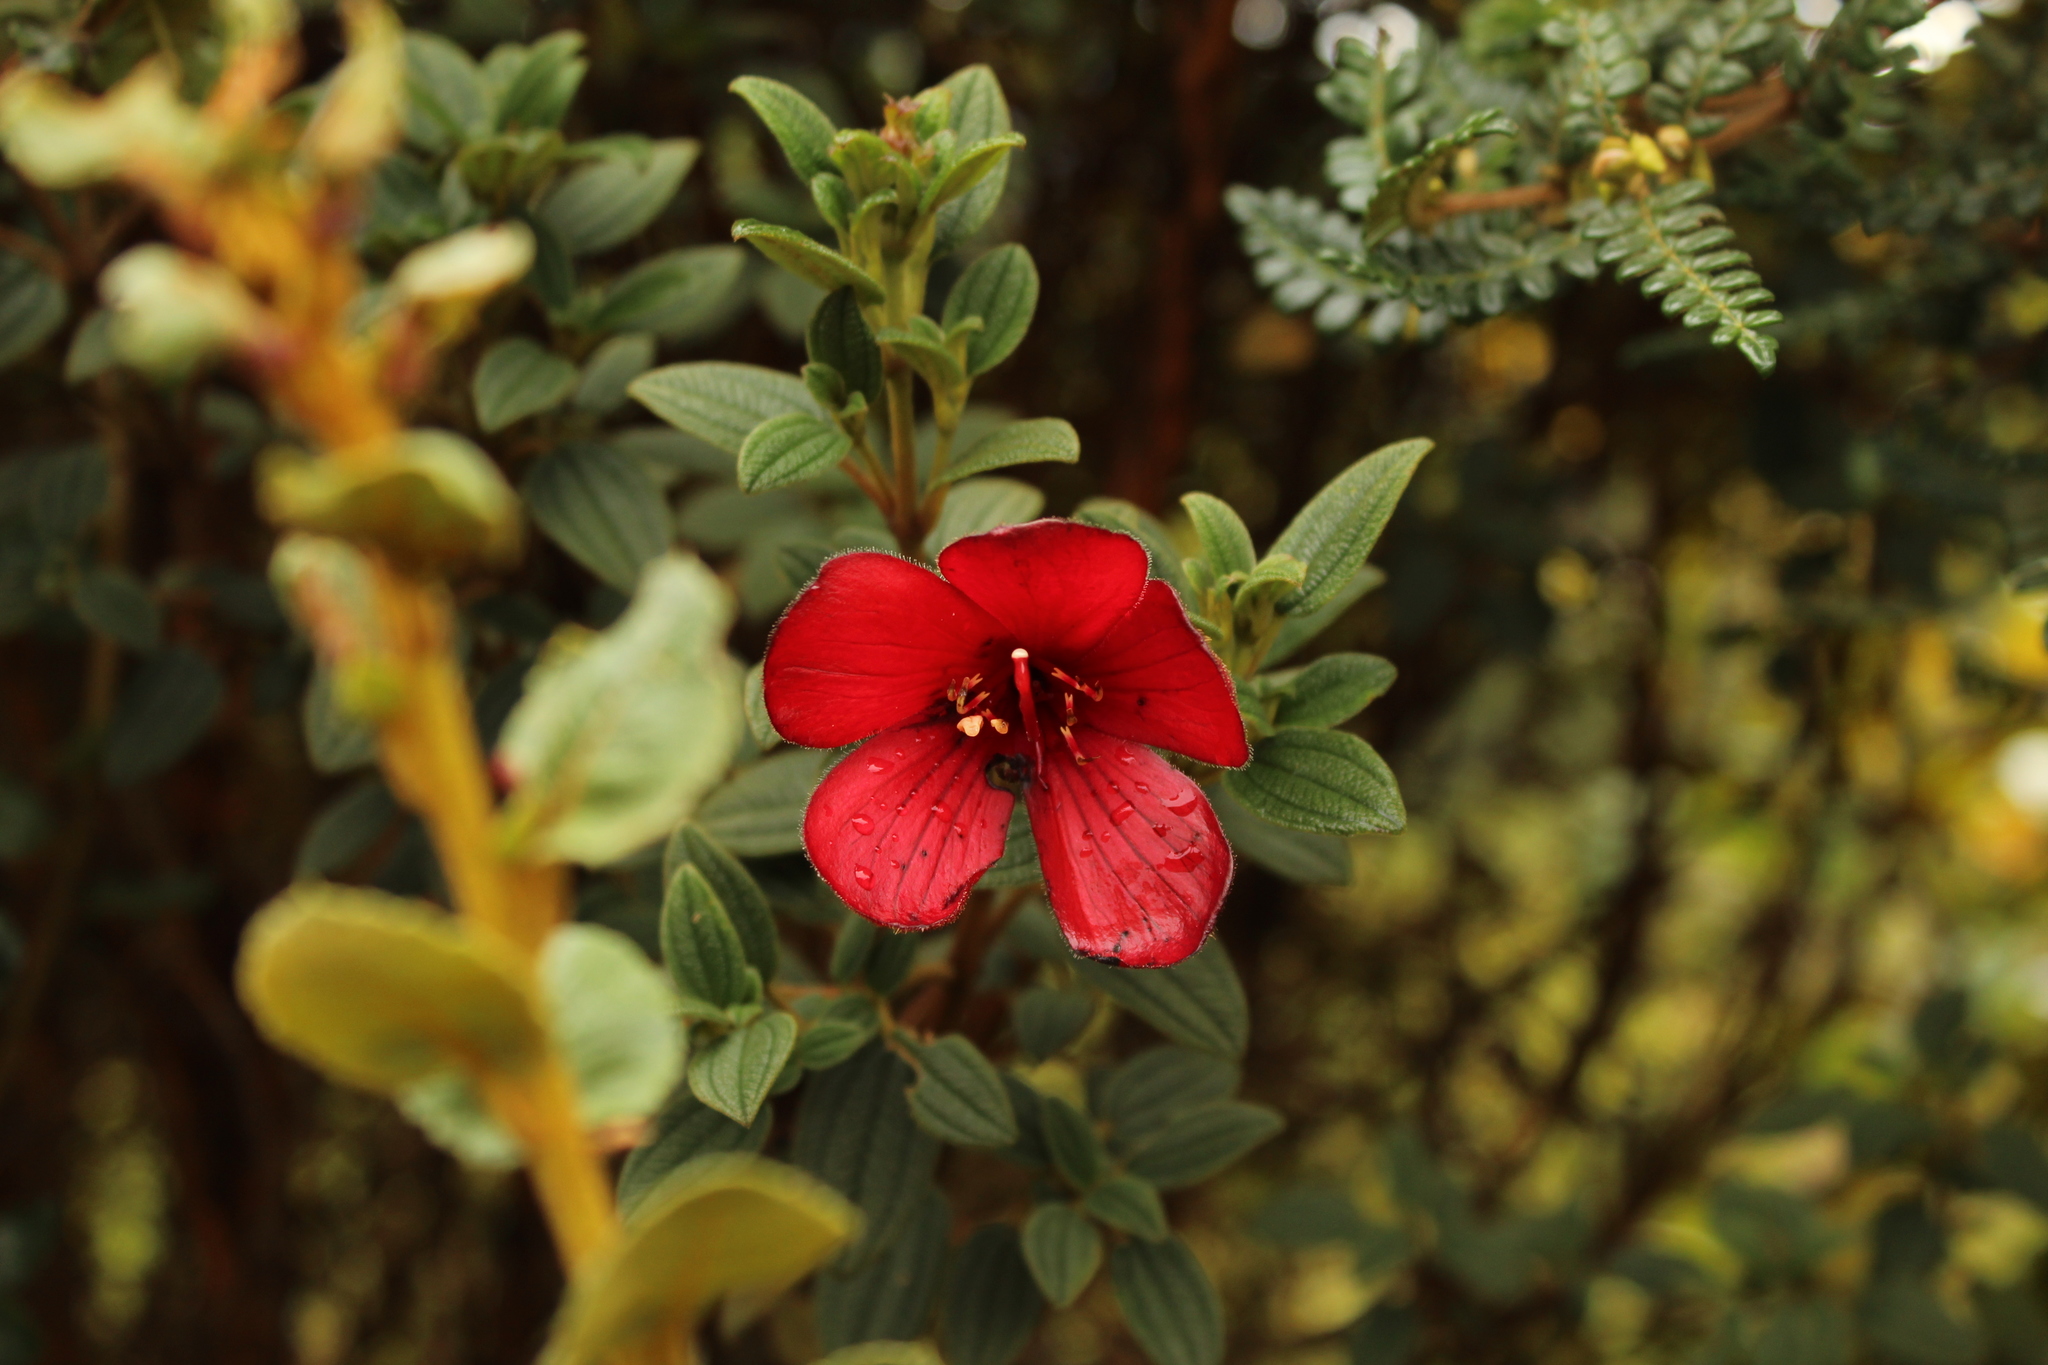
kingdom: Plantae
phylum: Tracheophyta
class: Magnoliopsida
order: Myrtales
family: Melastomataceae
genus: Chaetogastra
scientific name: Chaetogastra grossa
